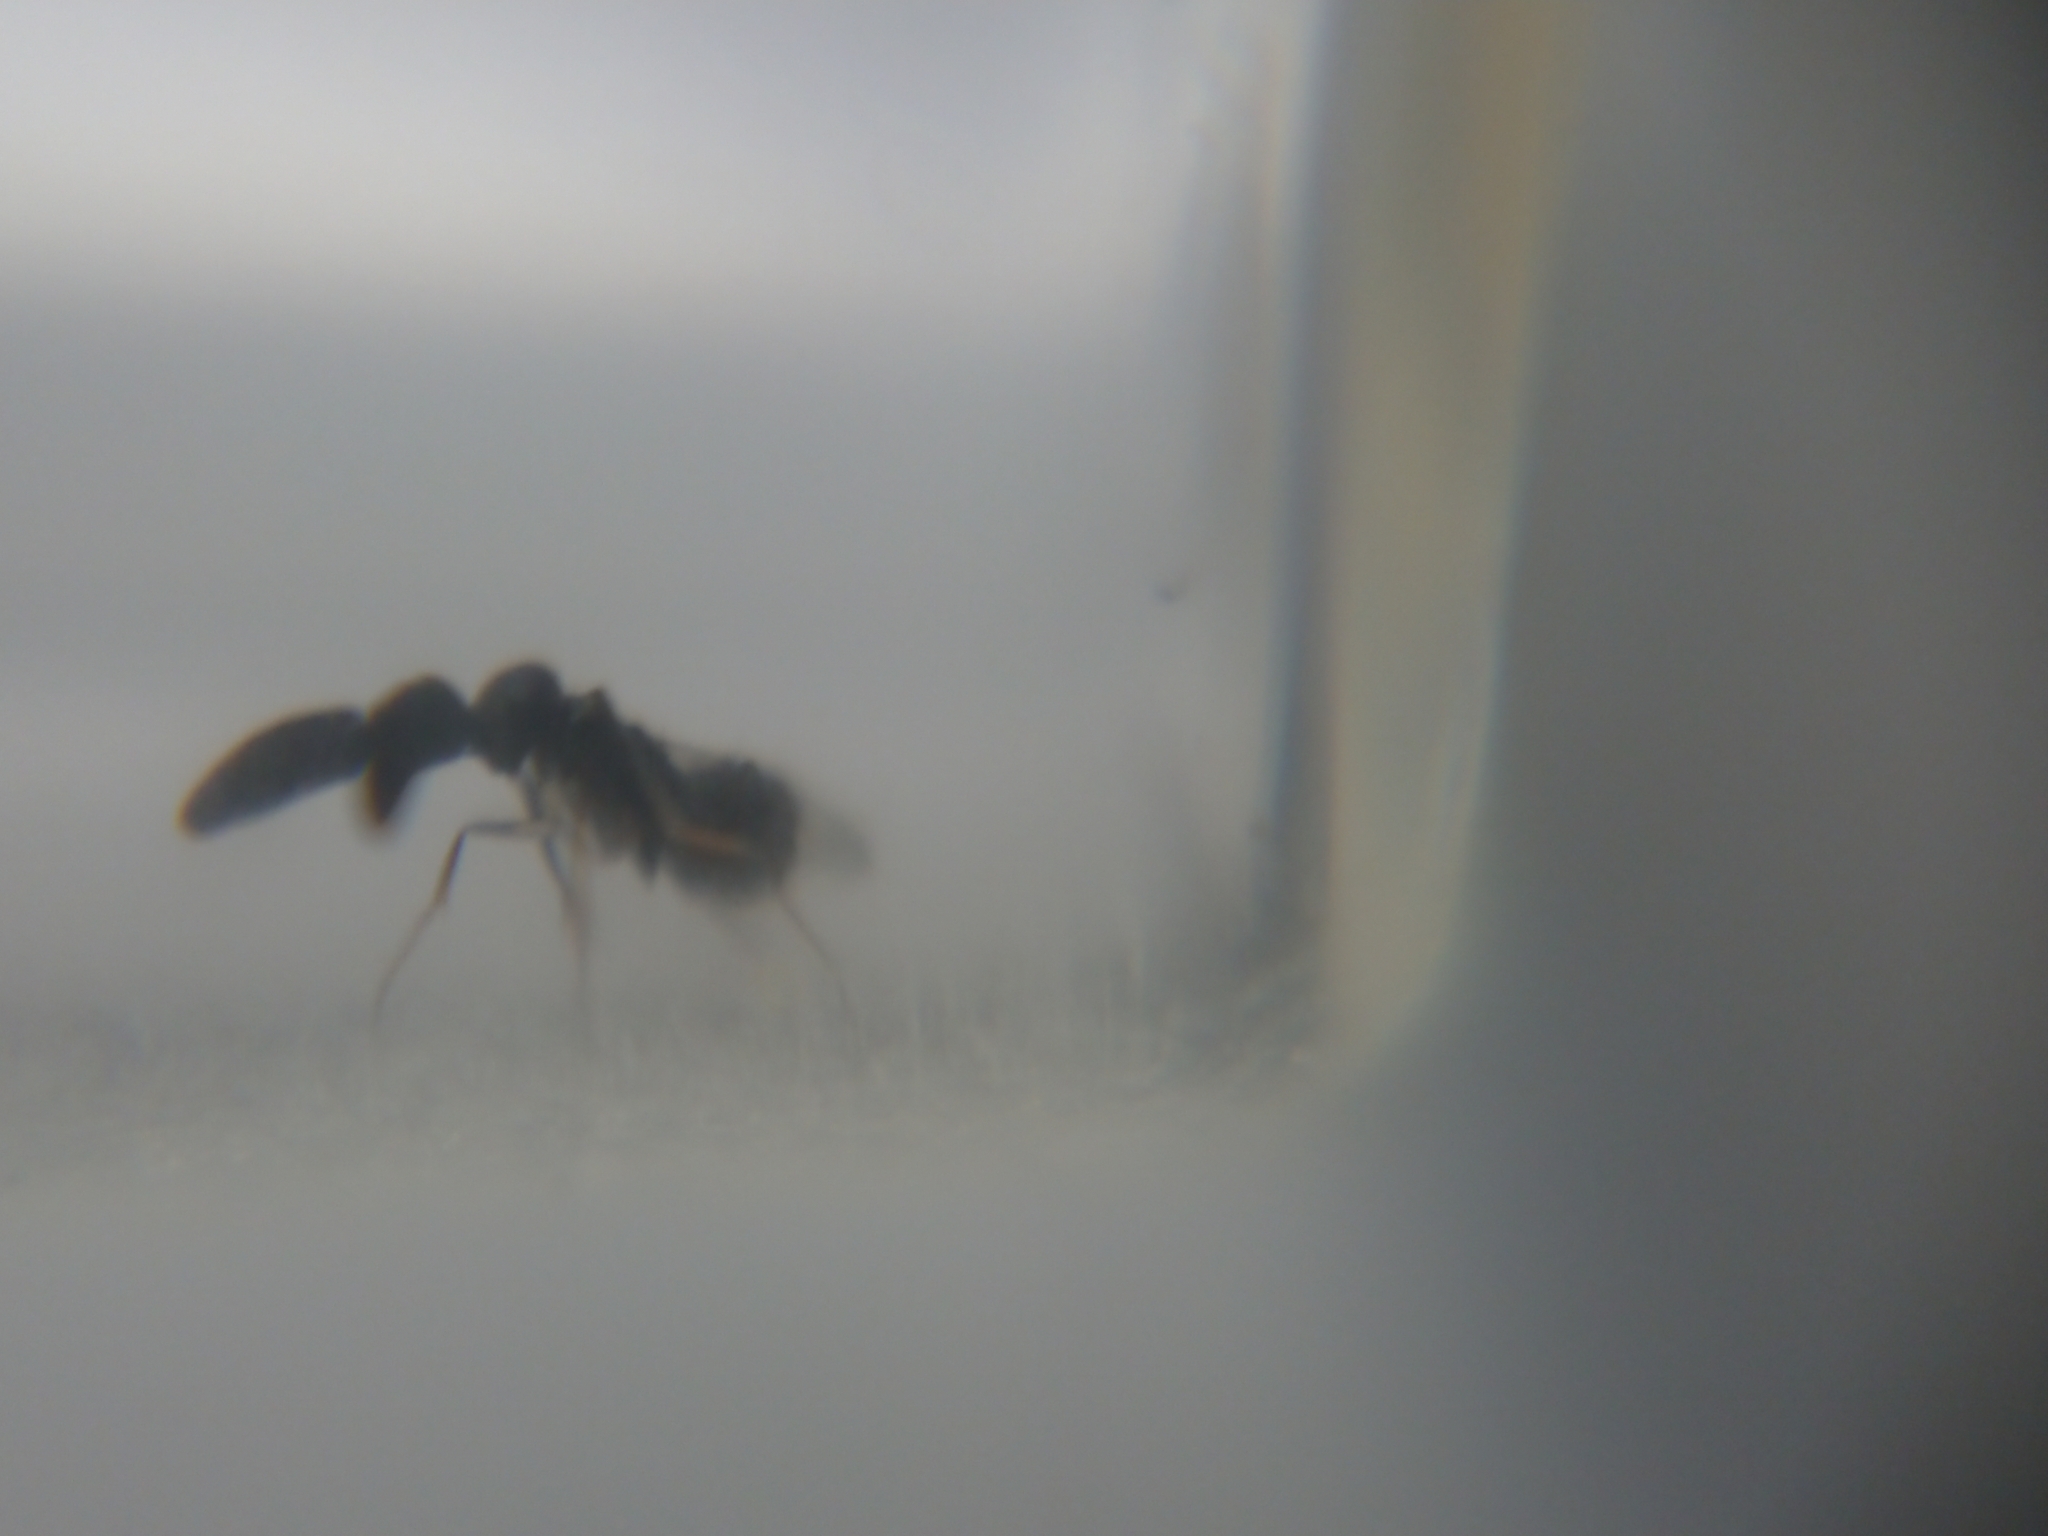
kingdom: Animalia
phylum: Arthropoda
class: Insecta
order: Hymenoptera
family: Encyrtidae
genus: Cryptanusia
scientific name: Cryptanusia aureiscutellum
